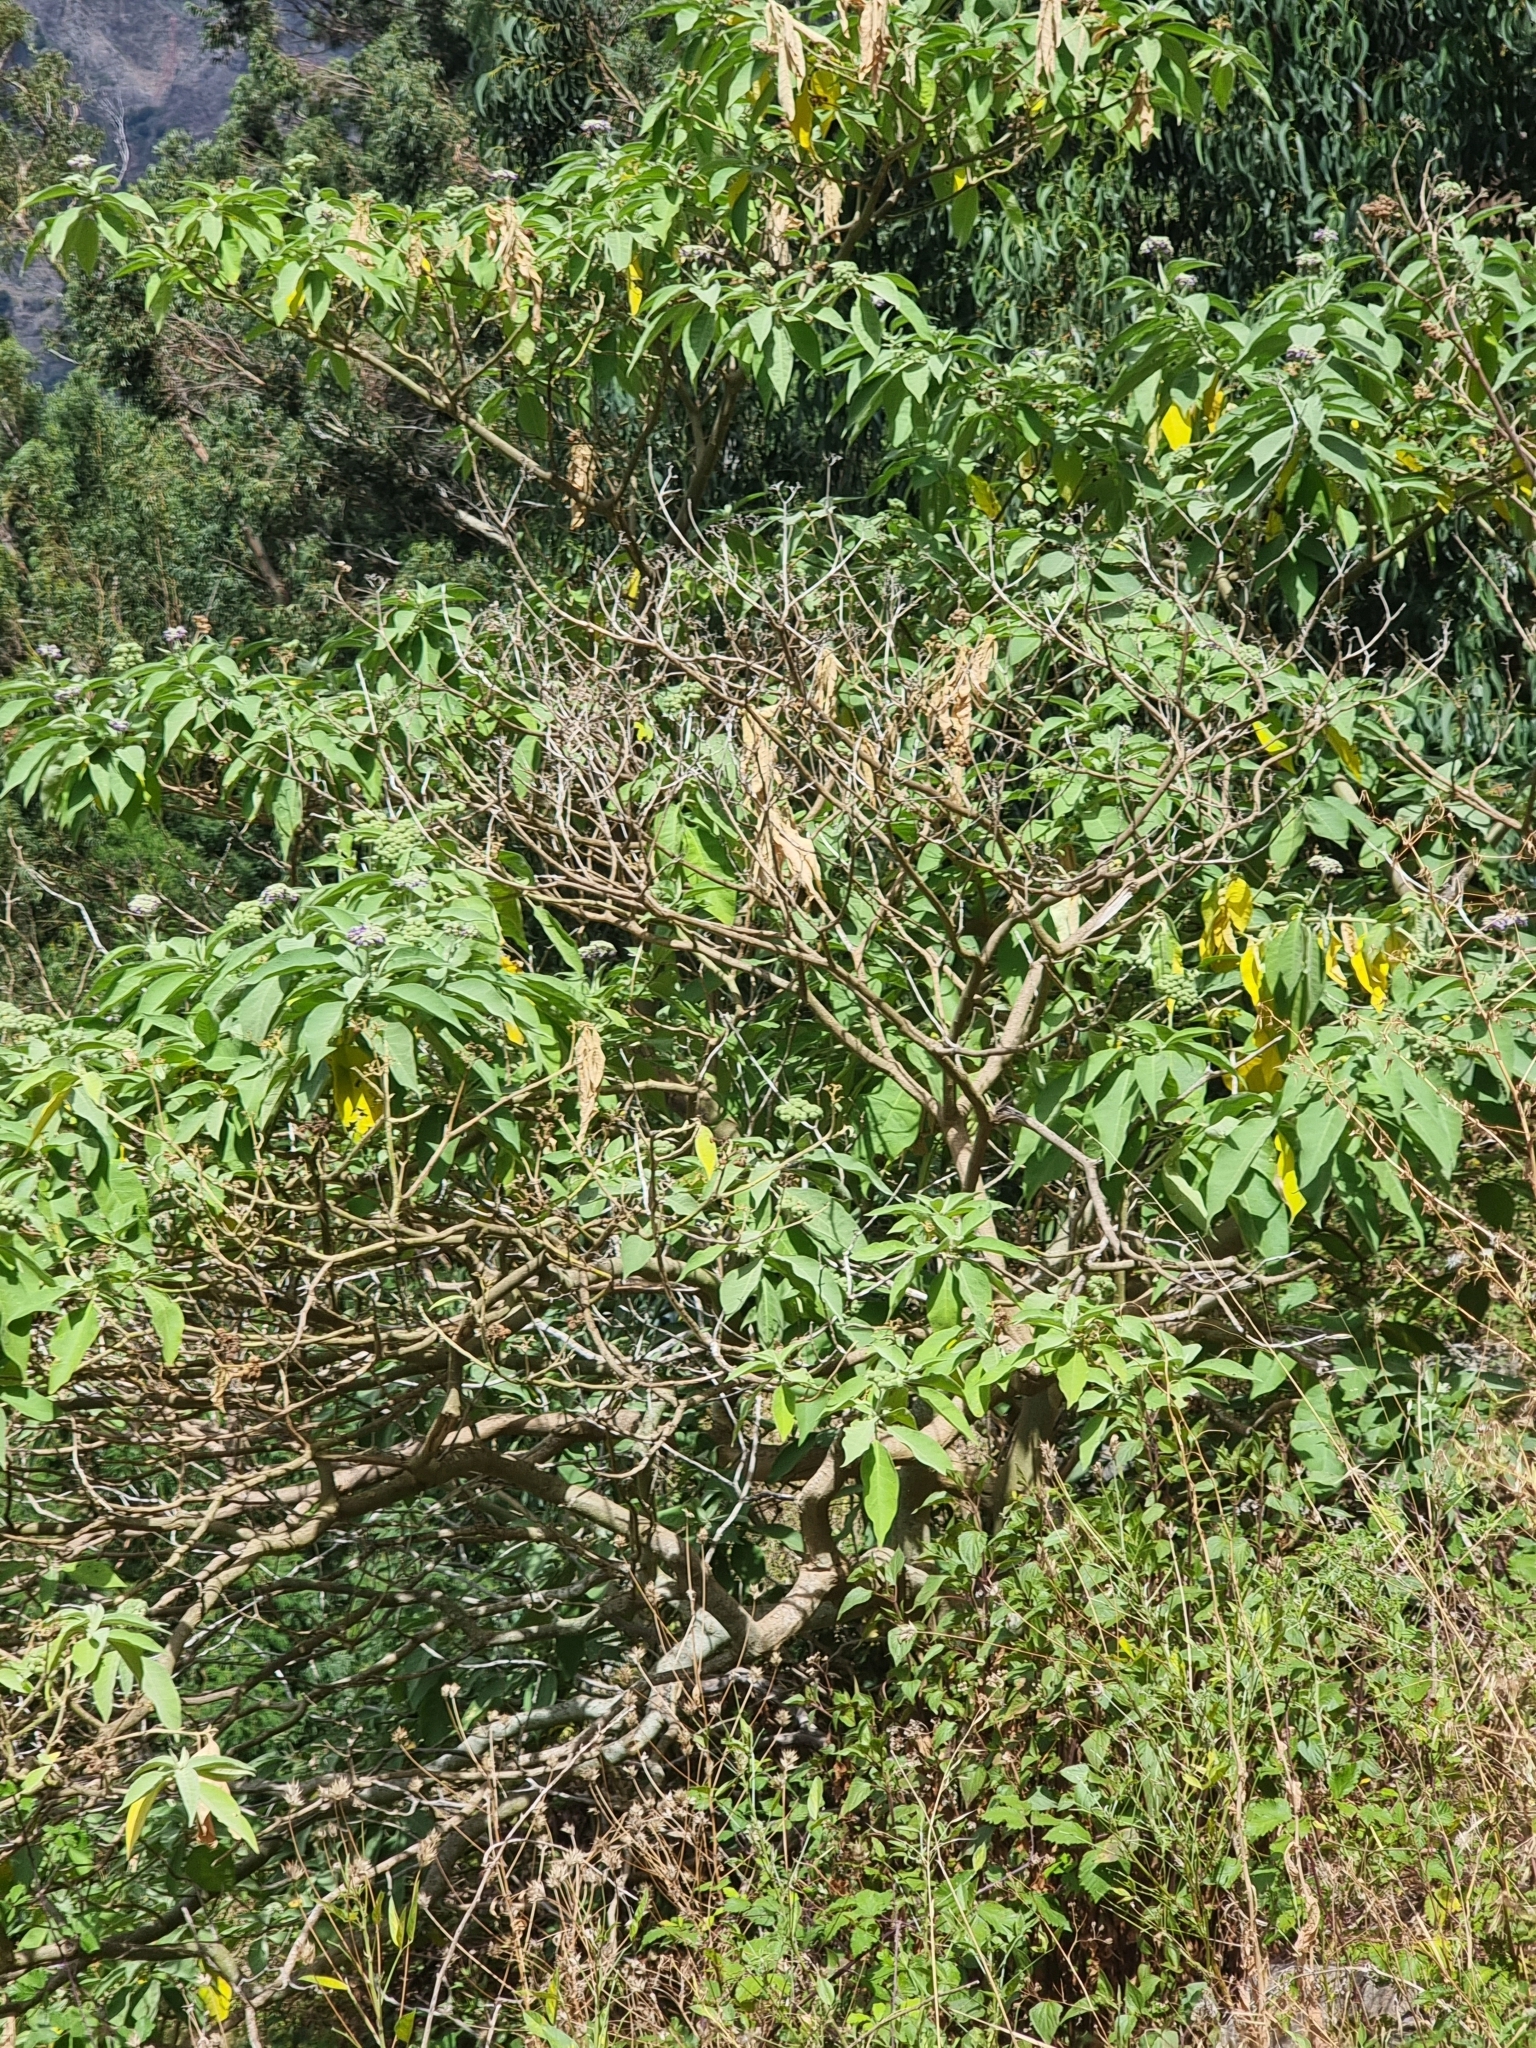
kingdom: Plantae
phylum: Tracheophyta
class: Magnoliopsida
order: Solanales
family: Solanaceae
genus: Solanum
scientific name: Solanum mauritianum
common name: Earleaf nightshade
